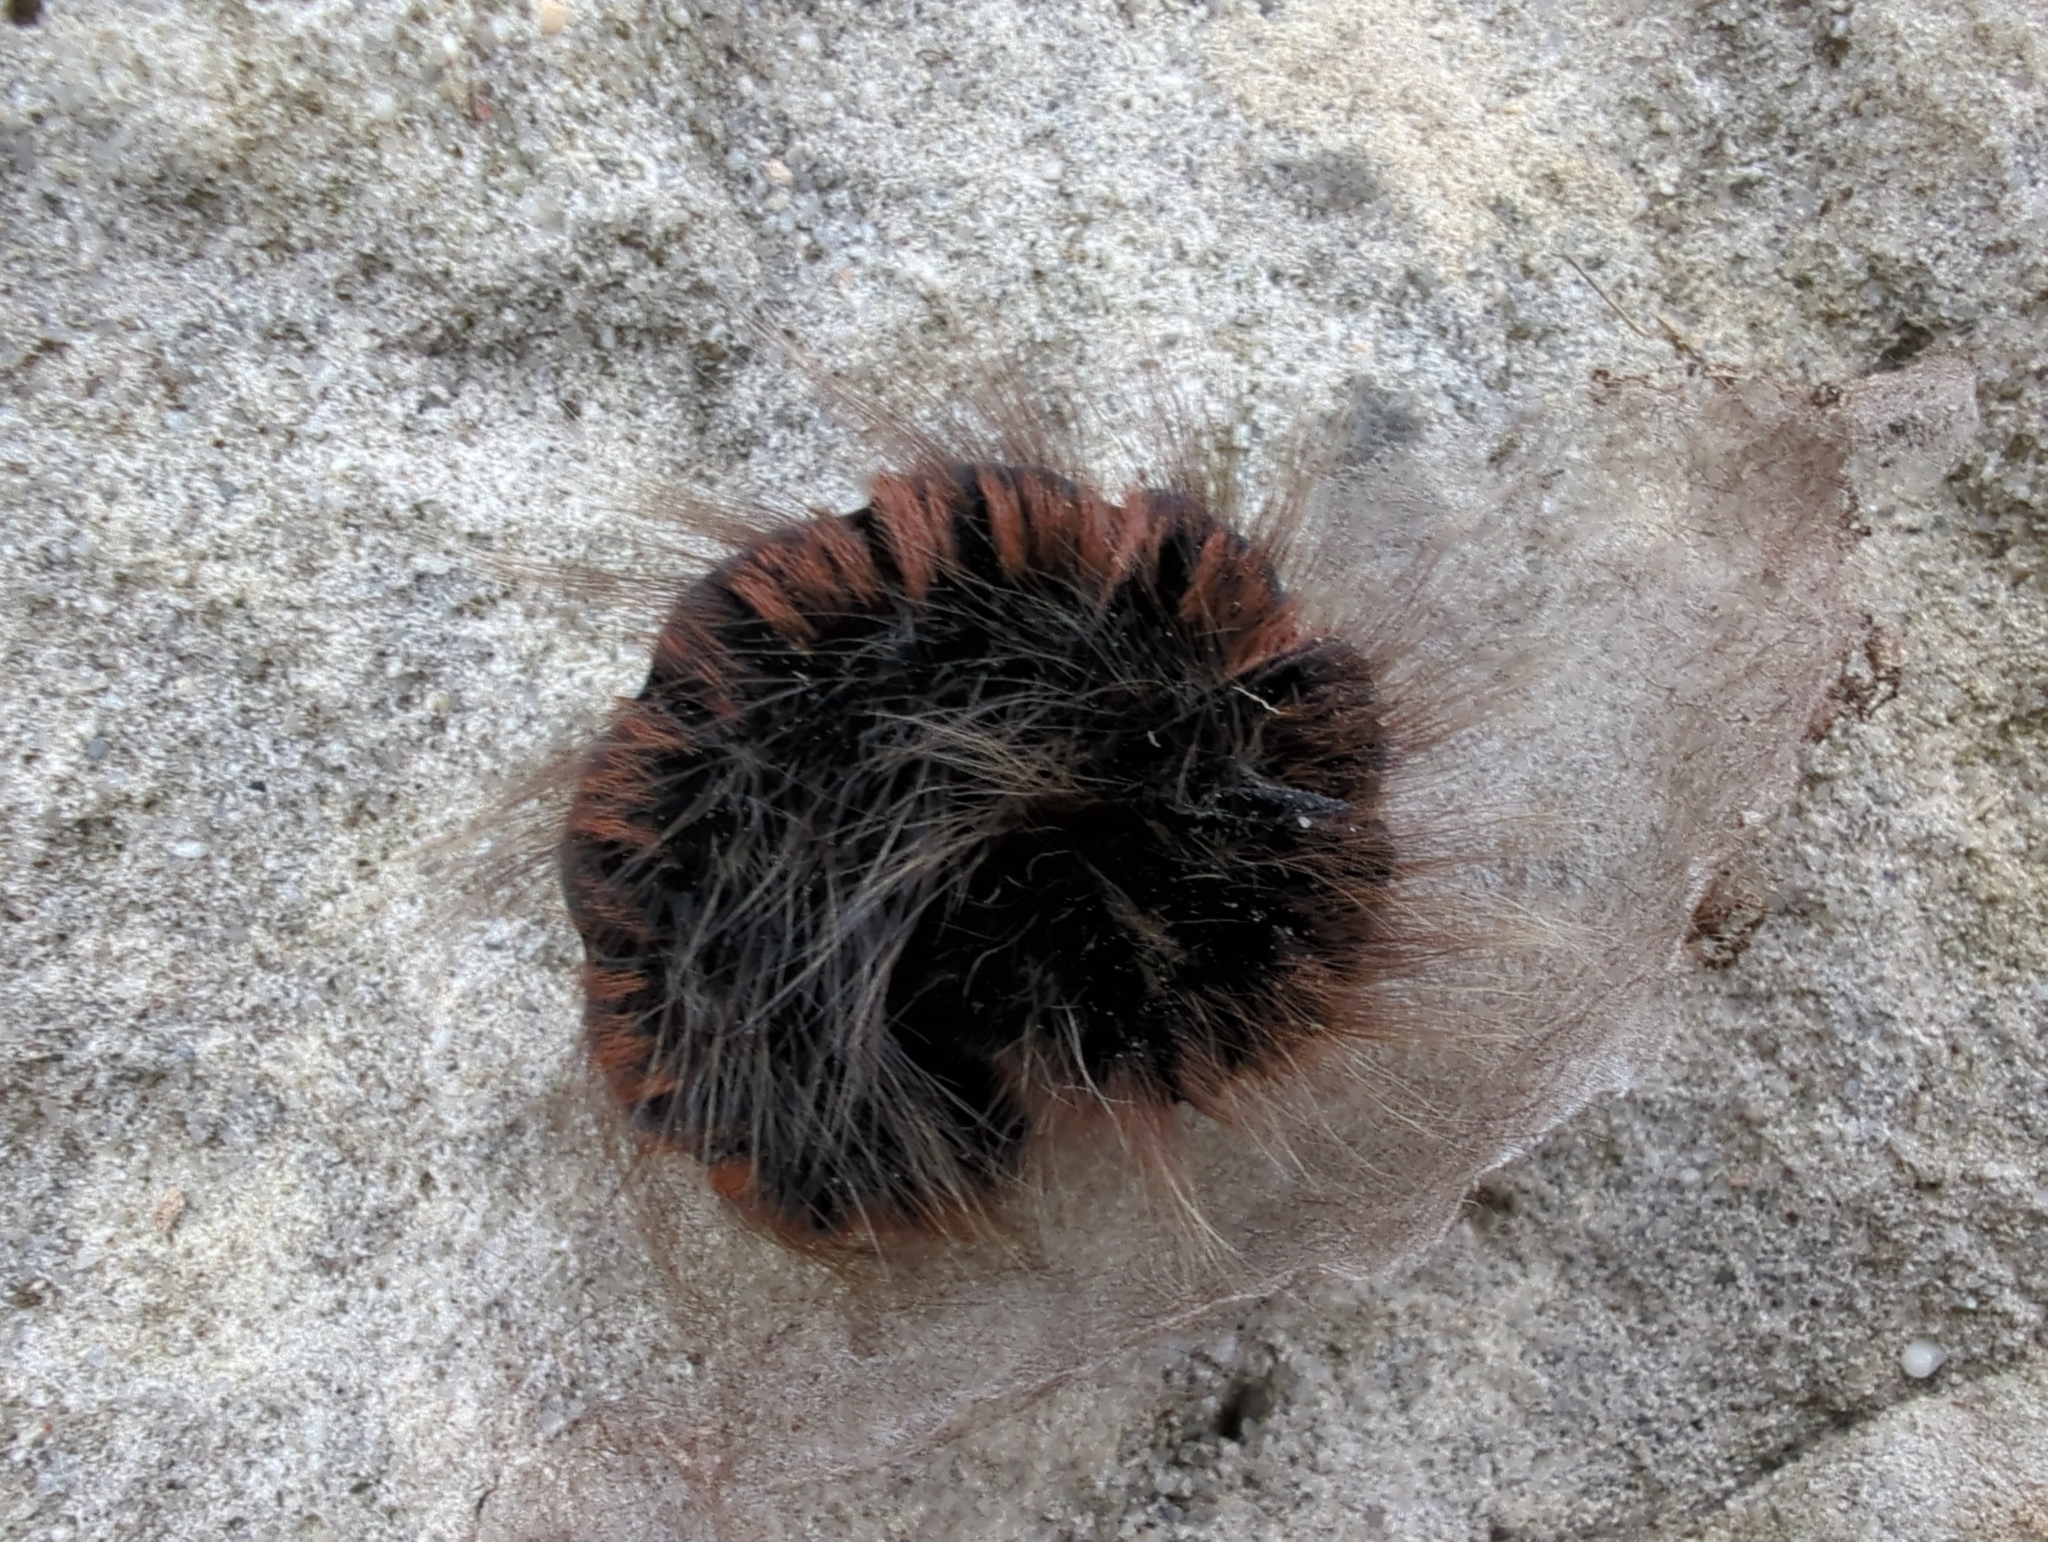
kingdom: Animalia
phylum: Arthropoda
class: Insecta
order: Lepidoptera
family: Lasiocampidae
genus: Macrothylacia
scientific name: Macrothylacia rubi
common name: Fox moth
